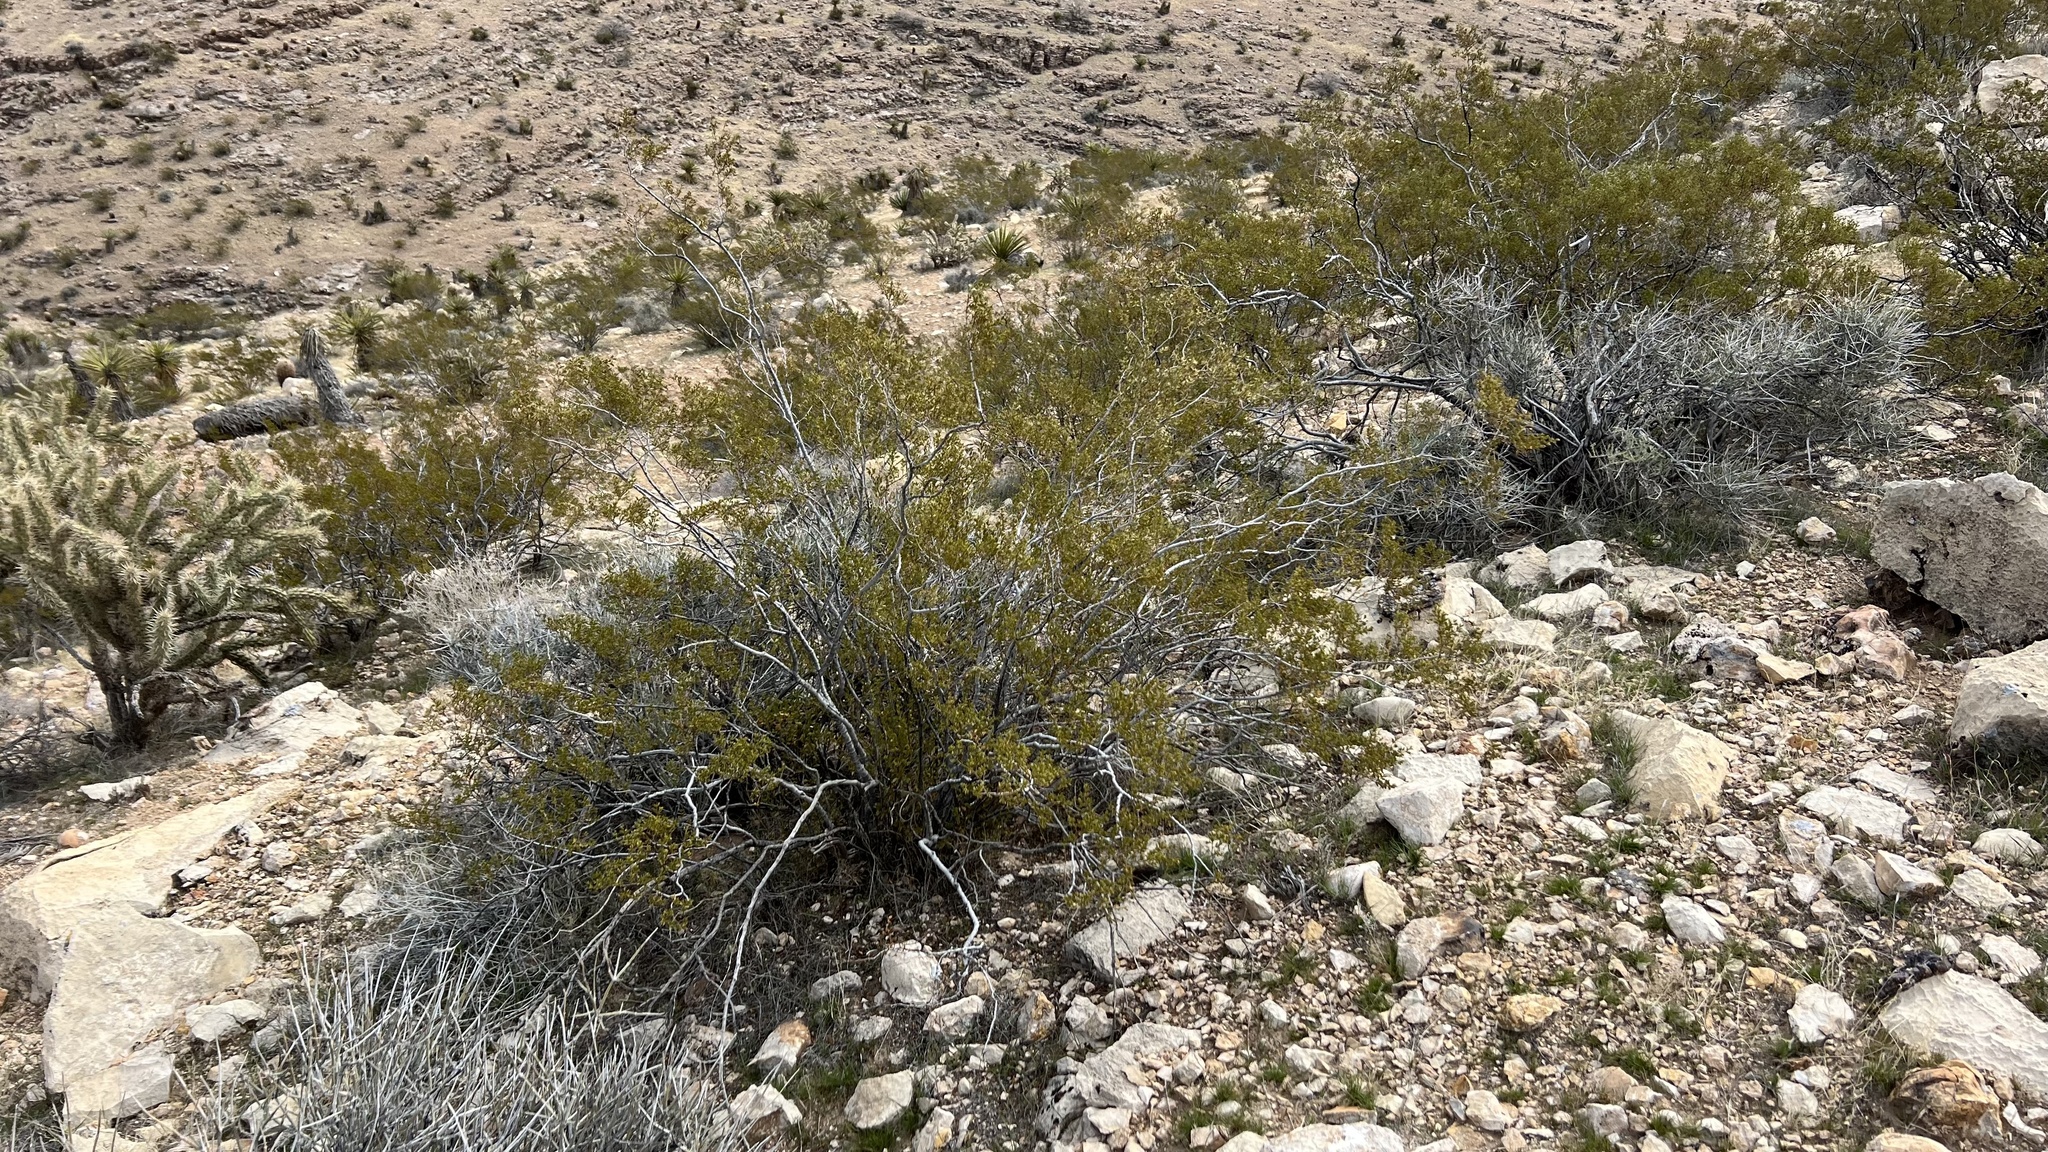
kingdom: Plantae
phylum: Tracheophyta
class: Magnoliopsida
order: Zygophyllales
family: Zygophyllaceae
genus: Larrea
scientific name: Larrea tridentata
